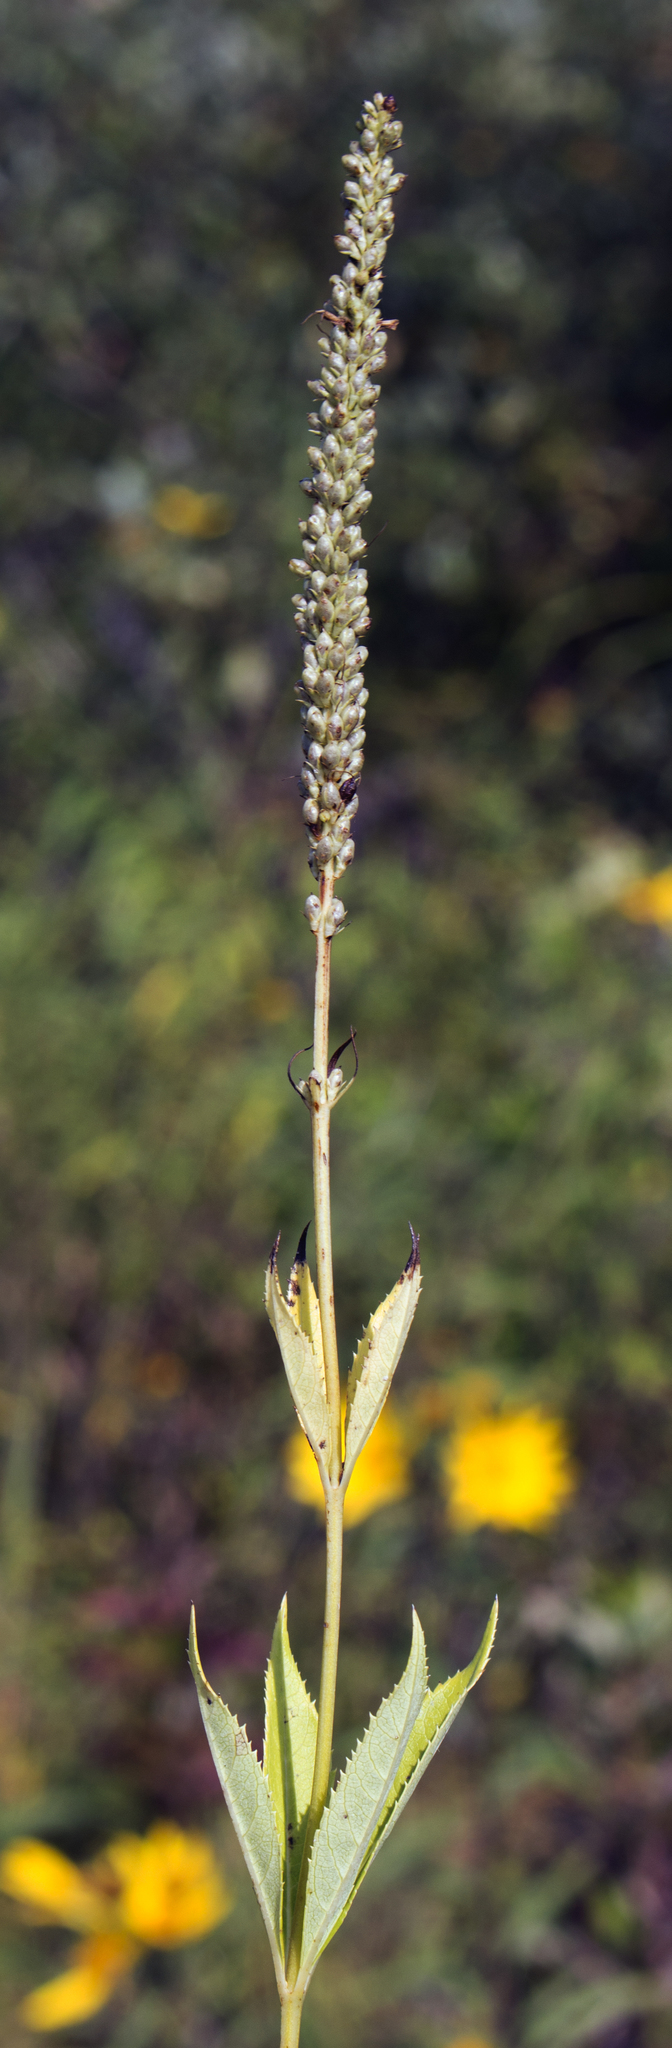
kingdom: Plantae
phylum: Tracheophyta
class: Magnoliopsida
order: Lamiales
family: Plantaginaceae
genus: Veronicastrum
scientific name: Veronicastrum virginicum
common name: Blackroot
